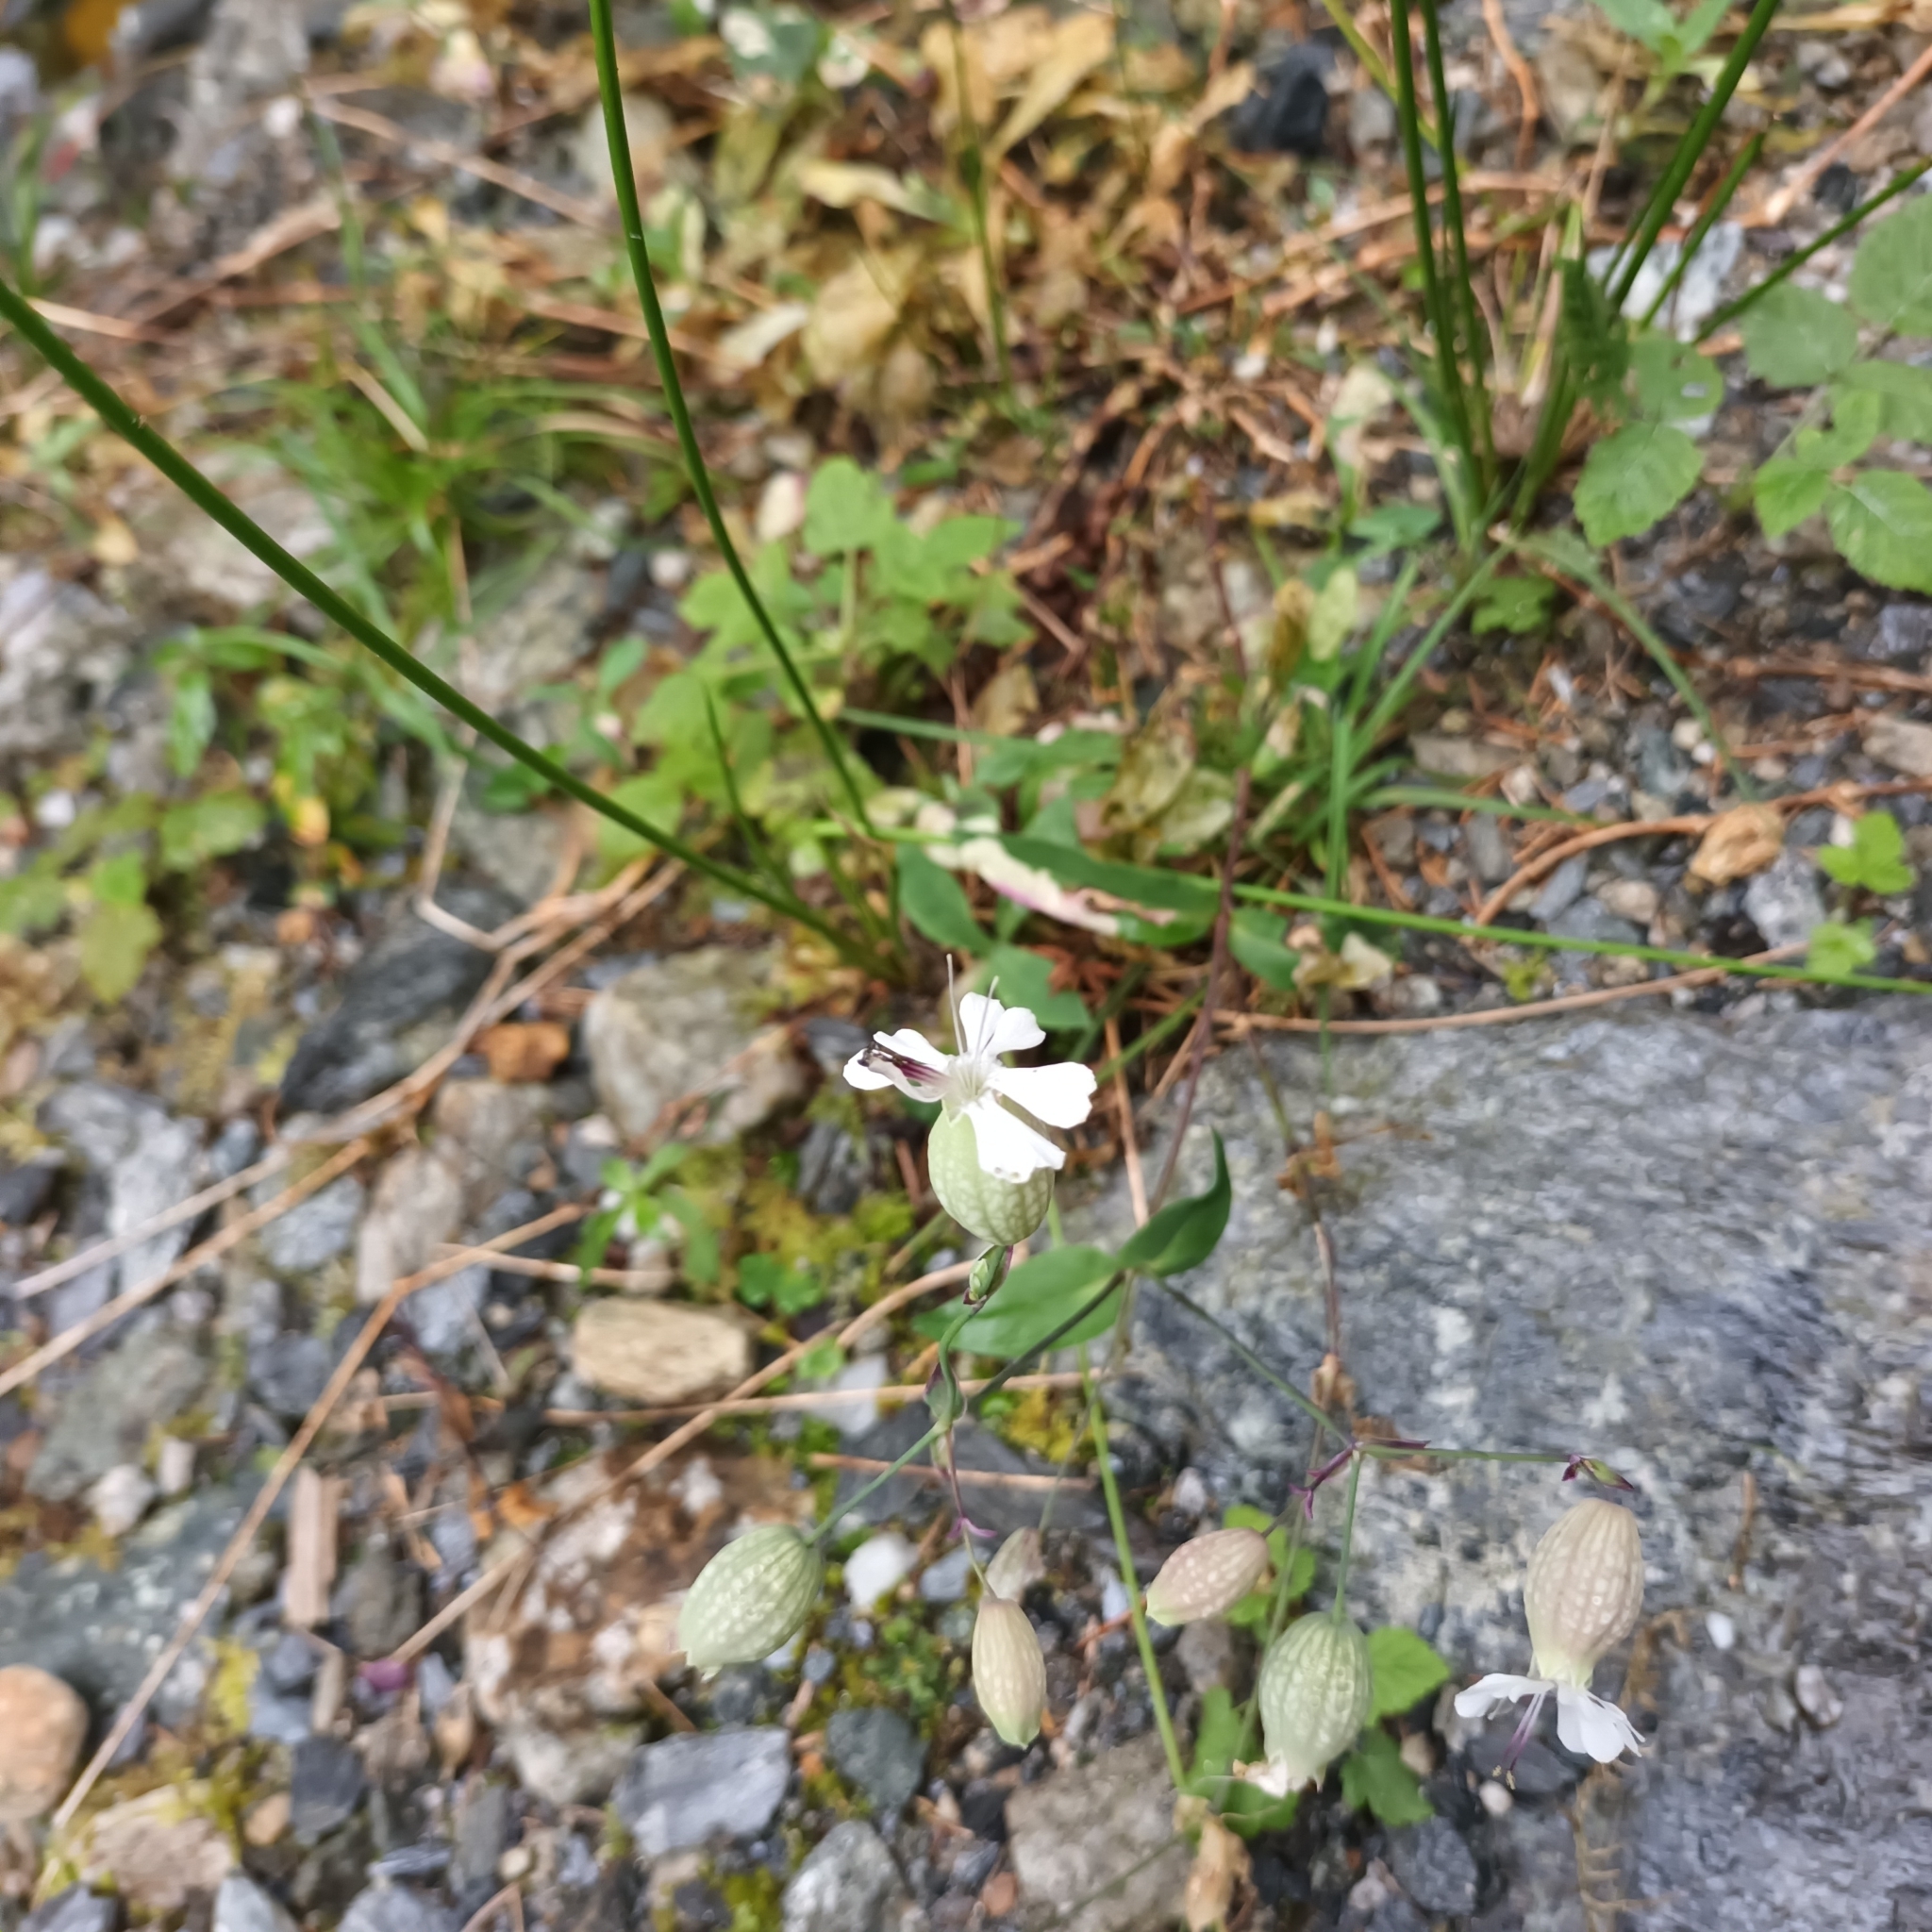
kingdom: Plantae
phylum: Tracheophyta
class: Magnoliopsida
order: Caryophyllales
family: Caryophyllaceae
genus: Silene
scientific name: Silene vulgaris
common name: Bladder campion
